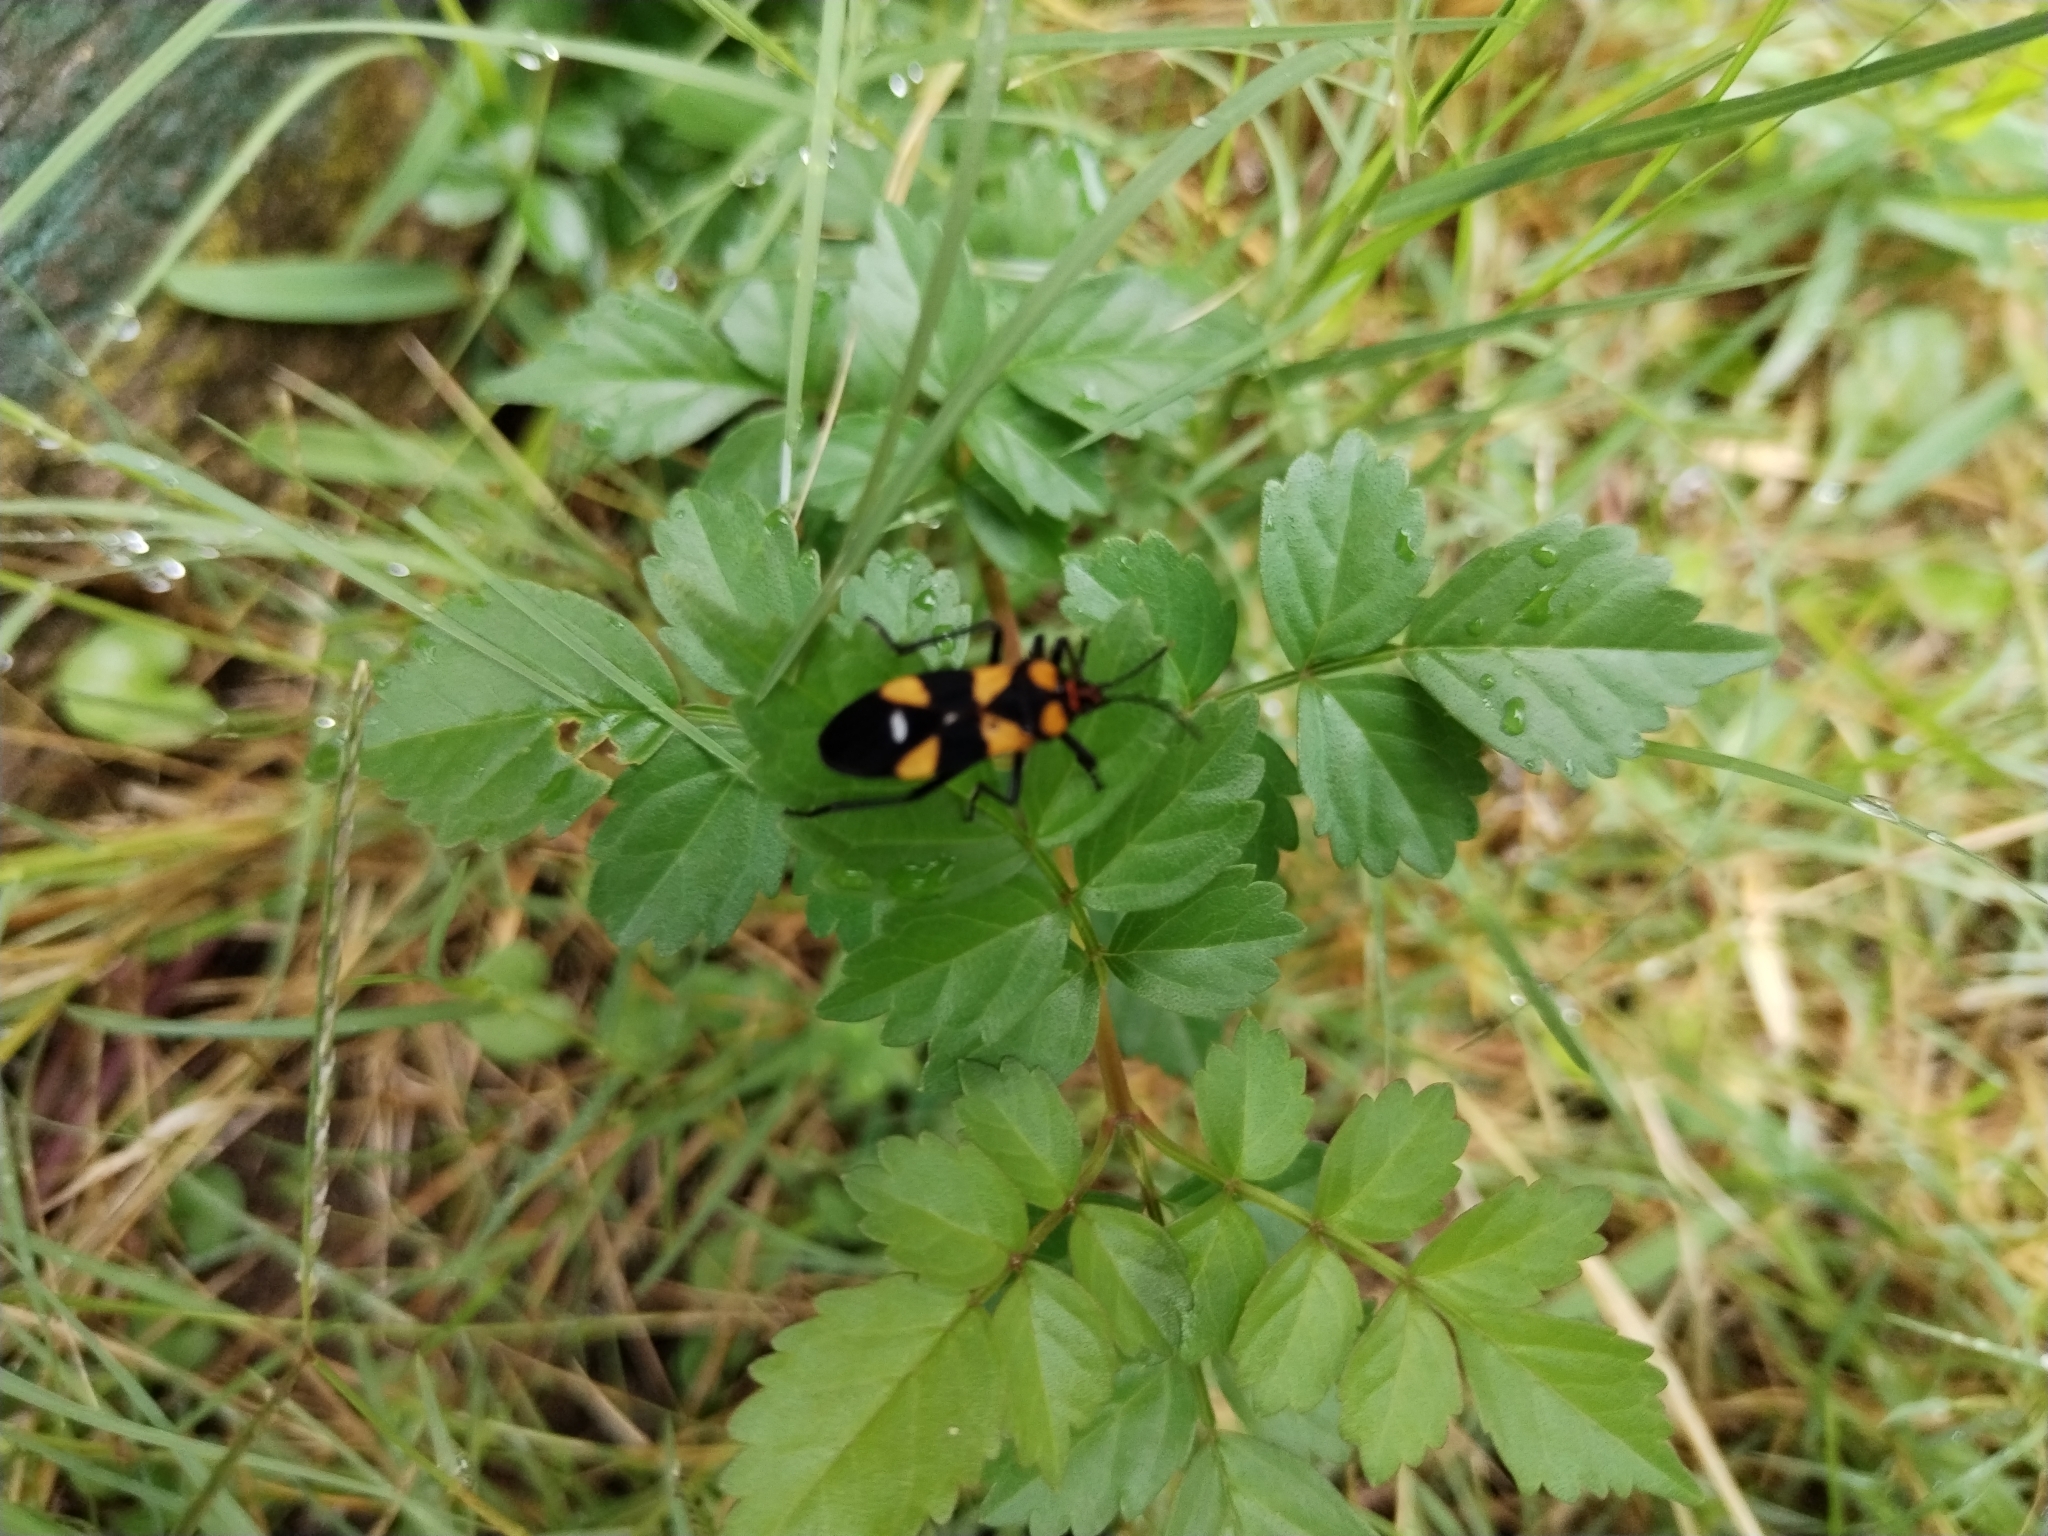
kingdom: Animalia
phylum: Arthropoda
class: Insecta
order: Hemiptera
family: Lygaeidae
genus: Oncopeltus
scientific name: Oncopeltus famelicus
